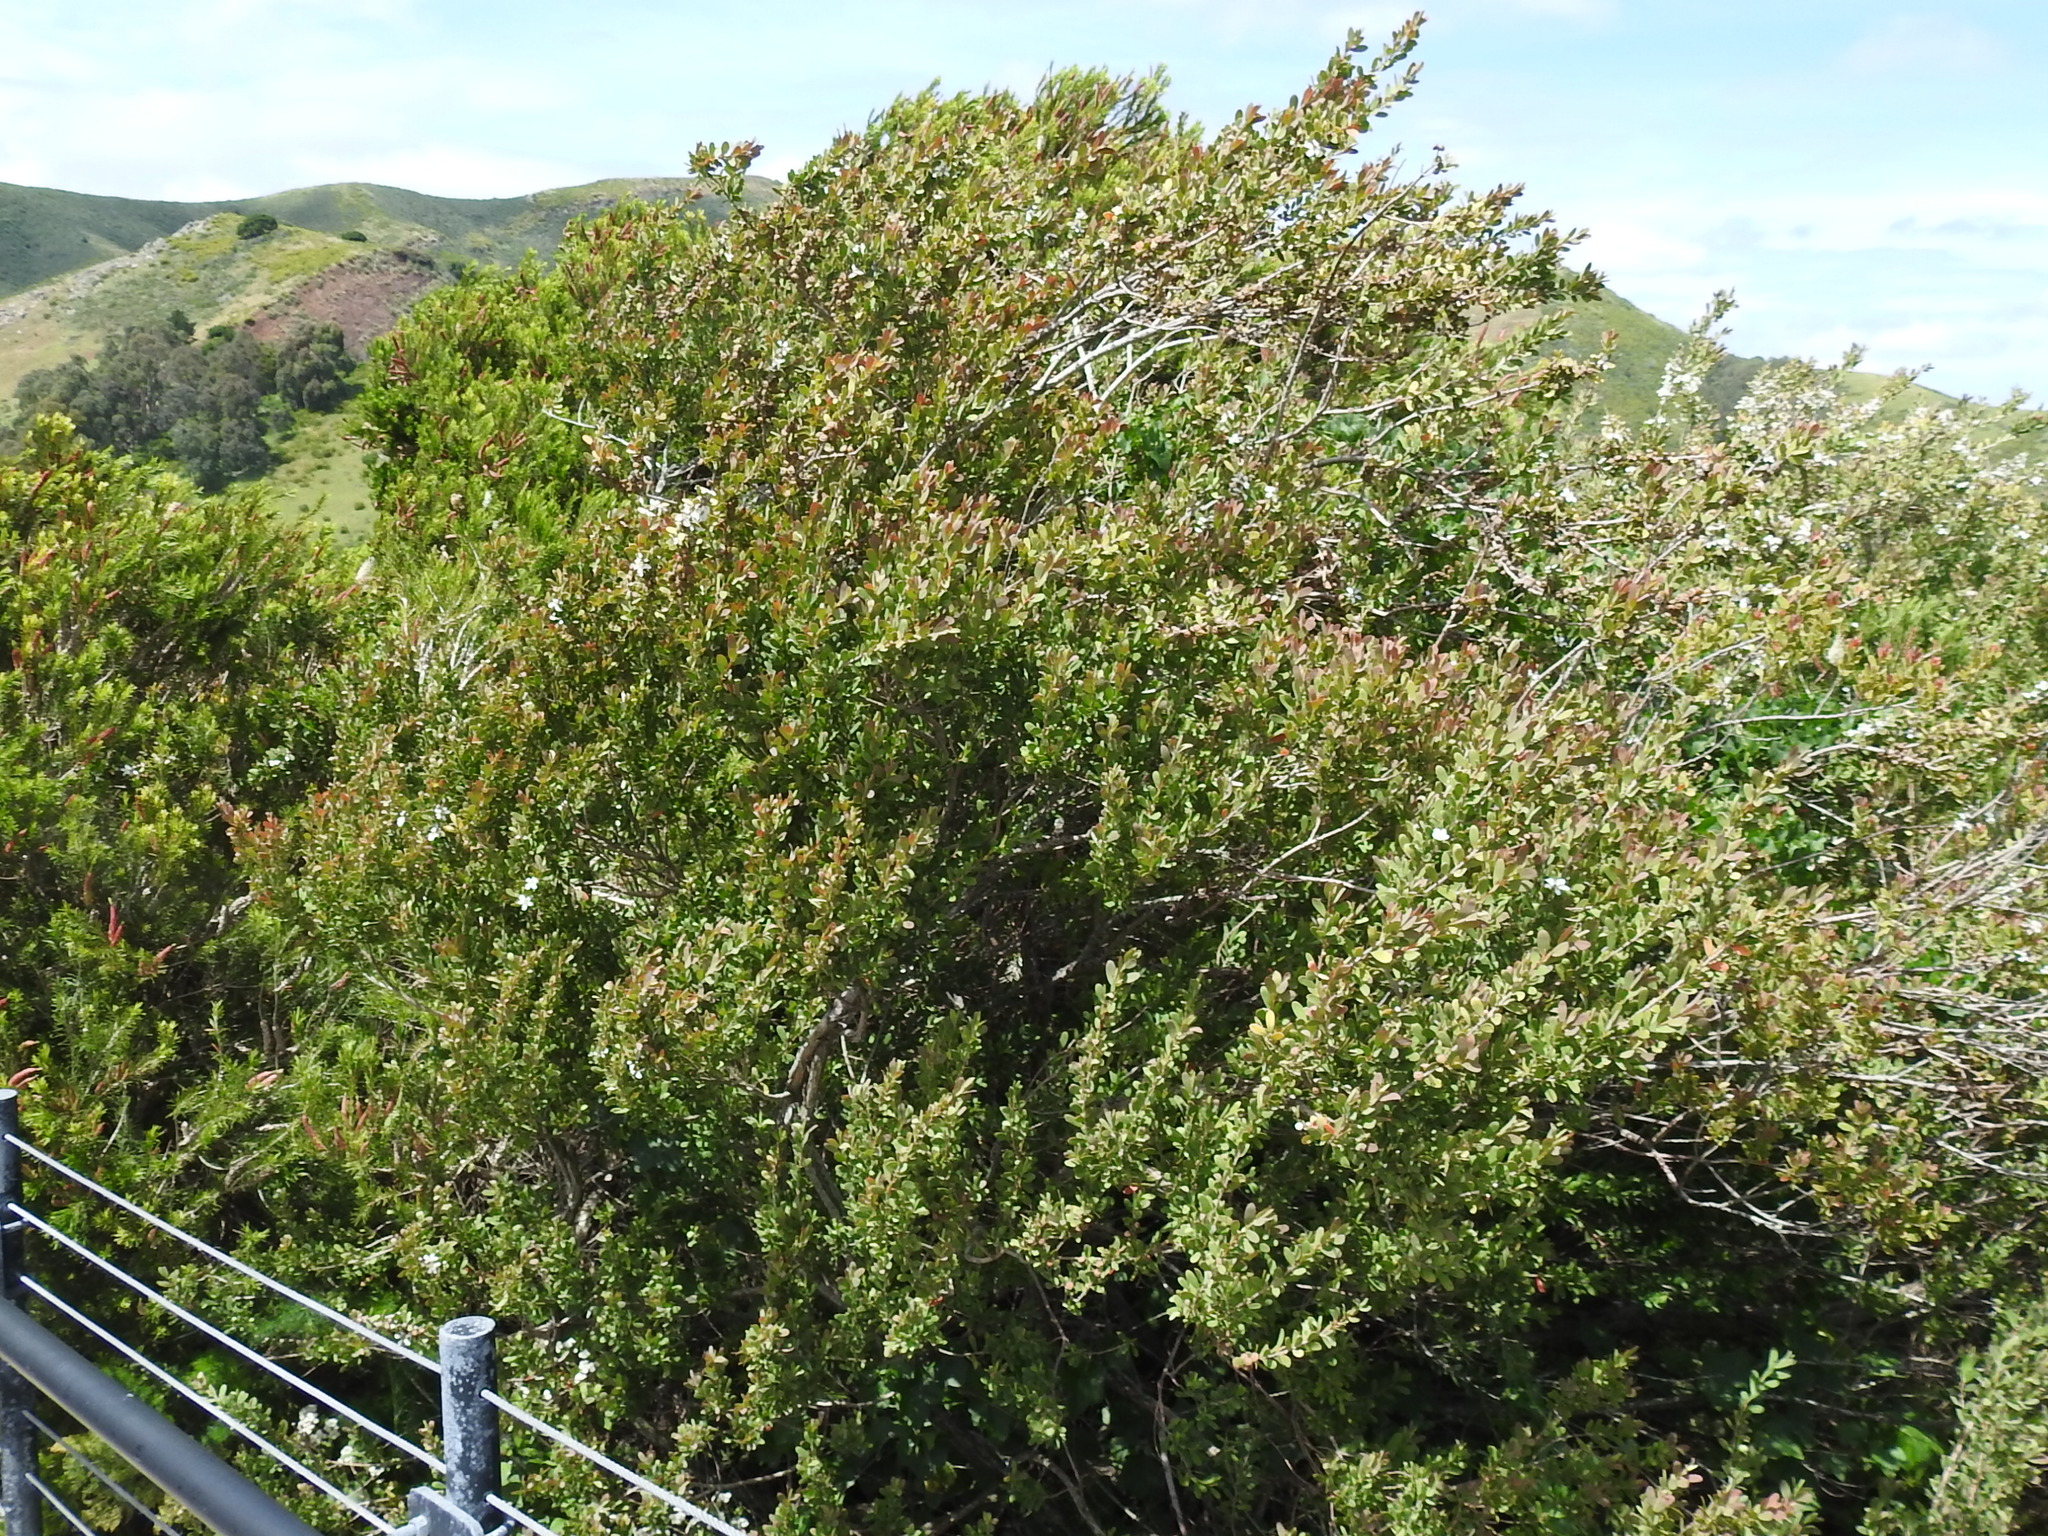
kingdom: Plantae
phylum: Tracheophyta
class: Magnoliopsida
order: Myrtales
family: Myrtaceae
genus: Leptospermum
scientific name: Leptospermum laevigatum
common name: Australian teatree
